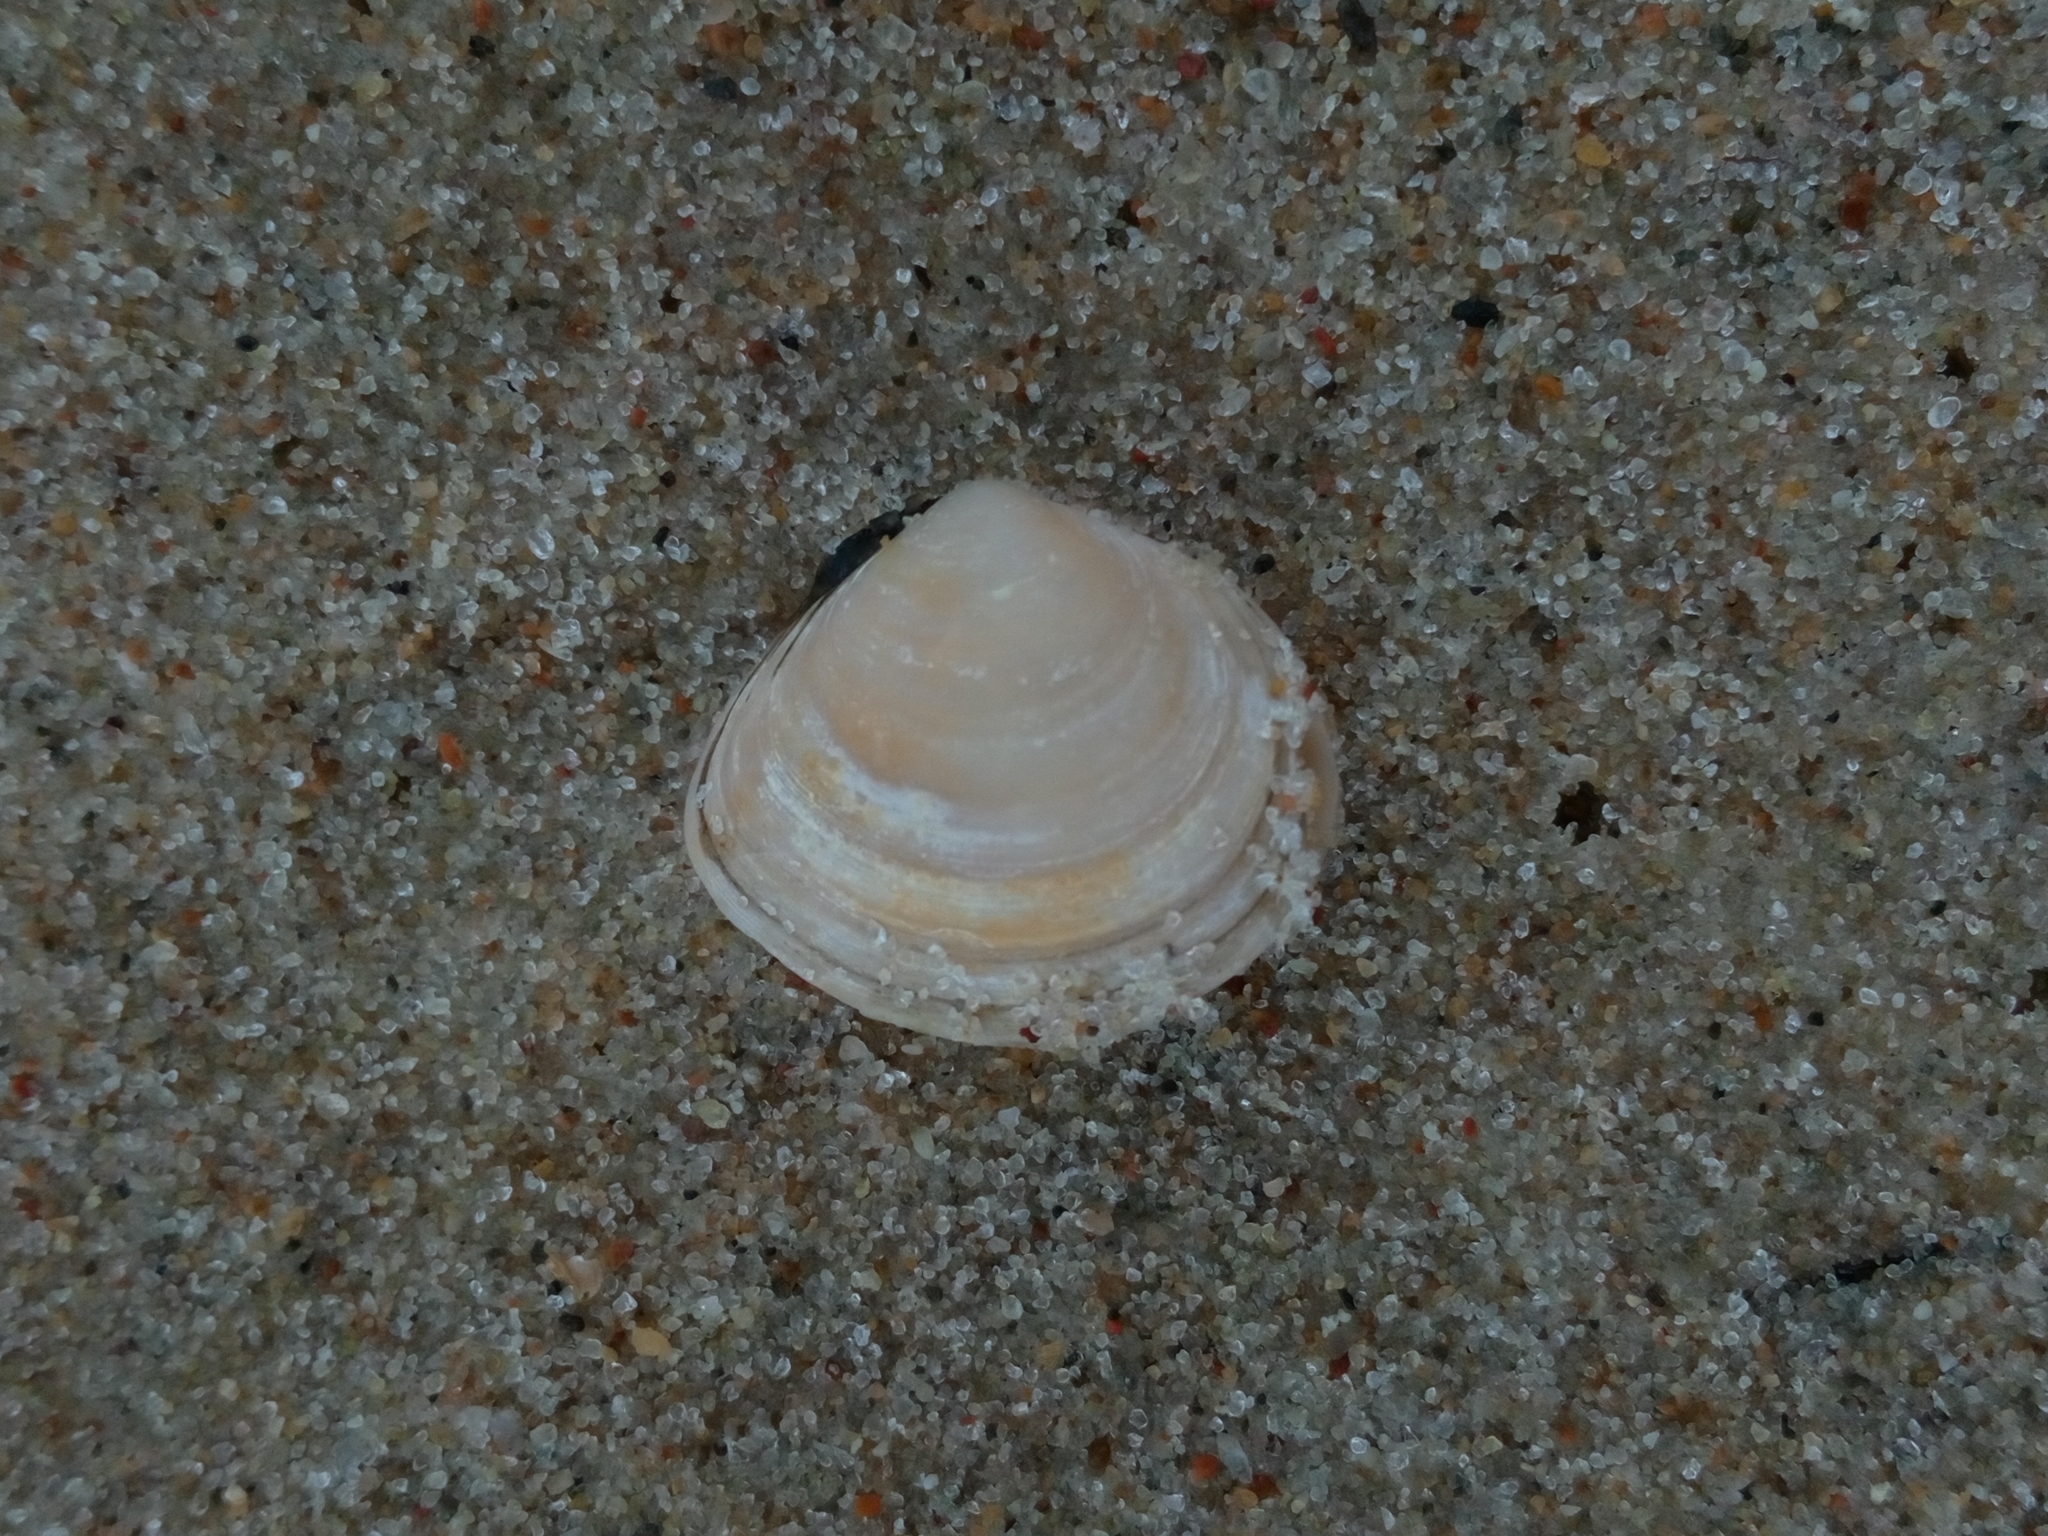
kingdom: Animalia
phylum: Mollusca
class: Bivalvia
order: Cardiida
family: Tellinidae
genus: Macoma
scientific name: Macoma balthica
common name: Baltic tellin
